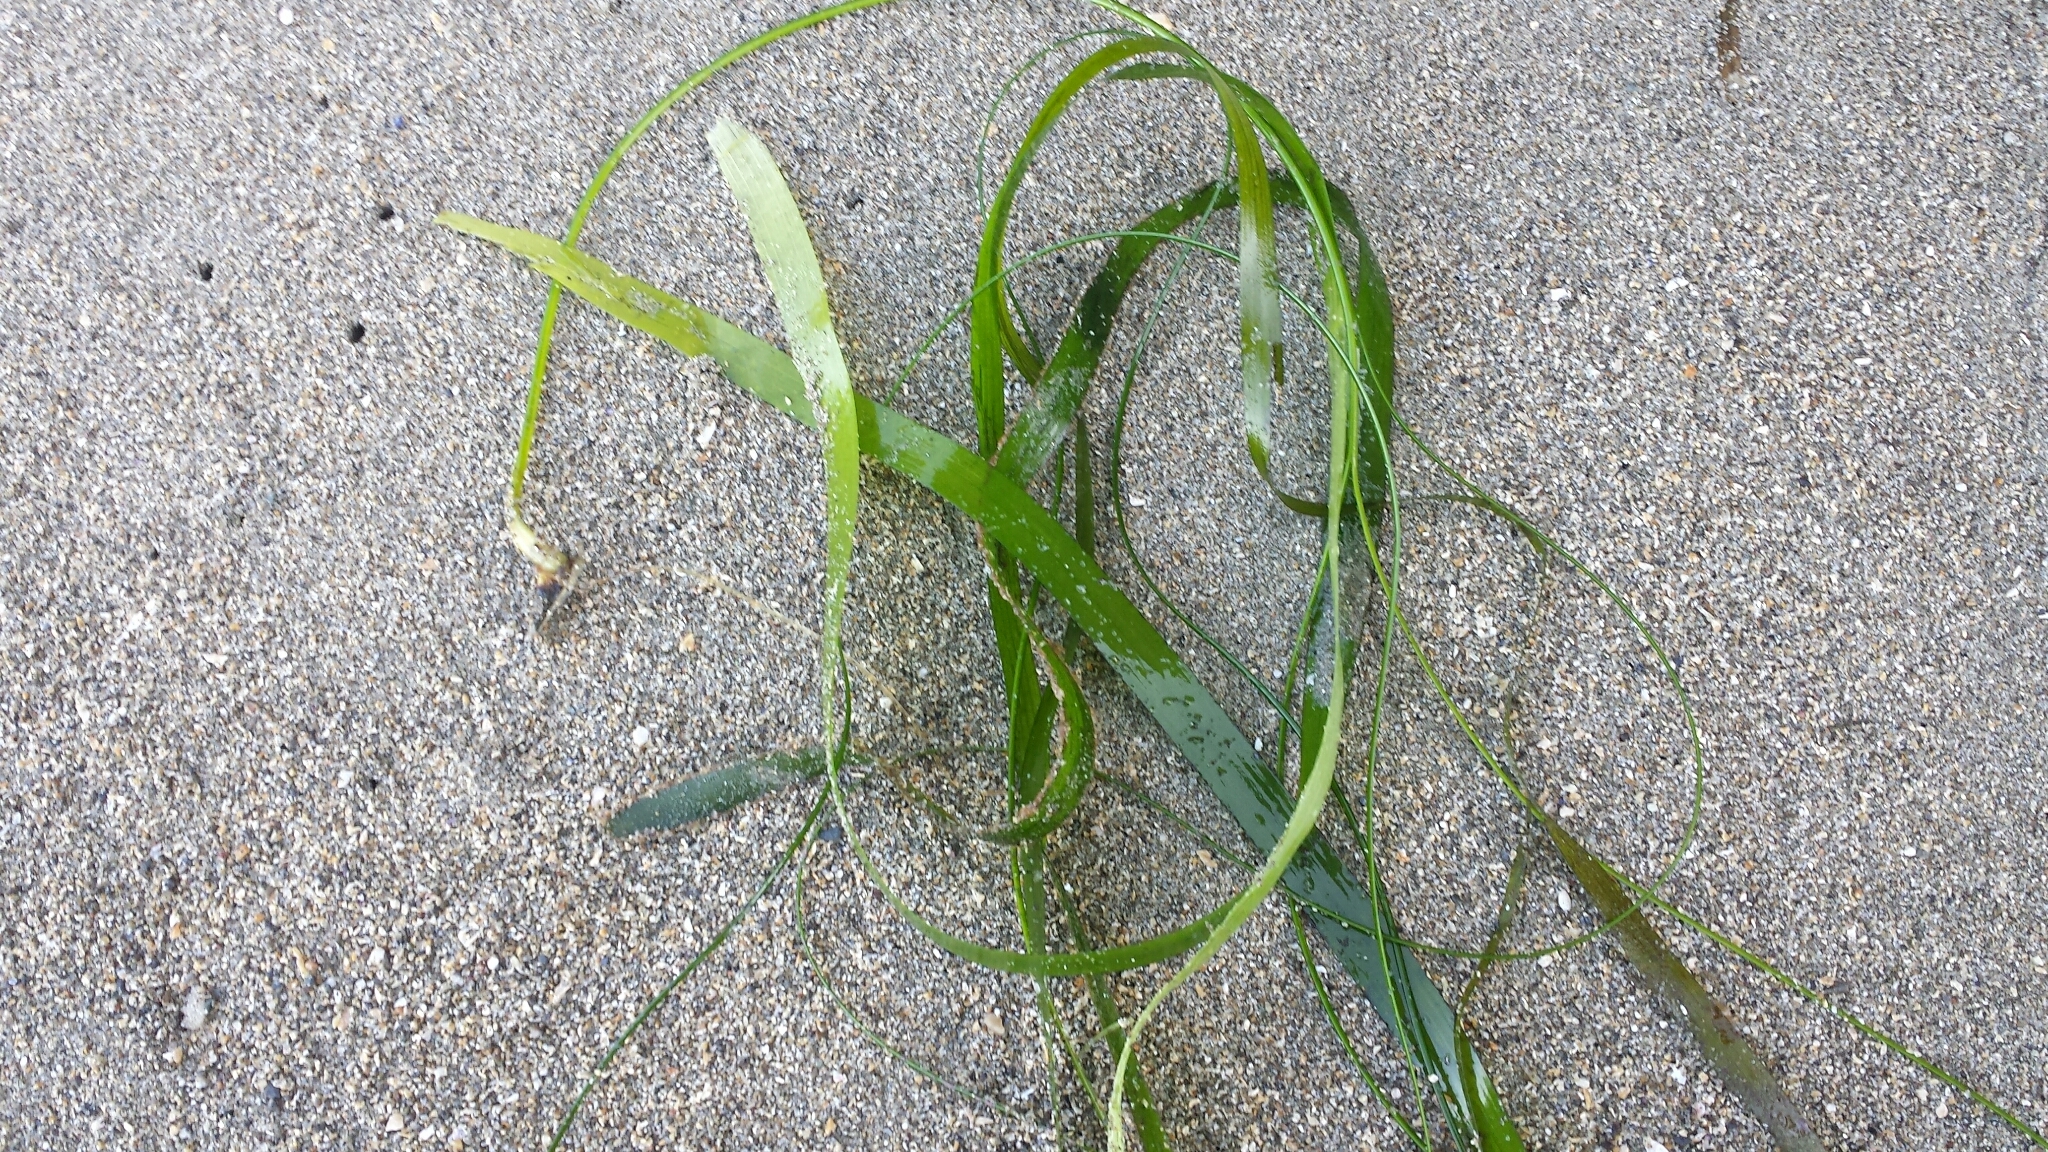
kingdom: Plantae
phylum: Tracheophyta
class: Liliopsida
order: Alismatales
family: Zosteraceae
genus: Zostera
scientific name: Zostera marina
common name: Eelgrass
